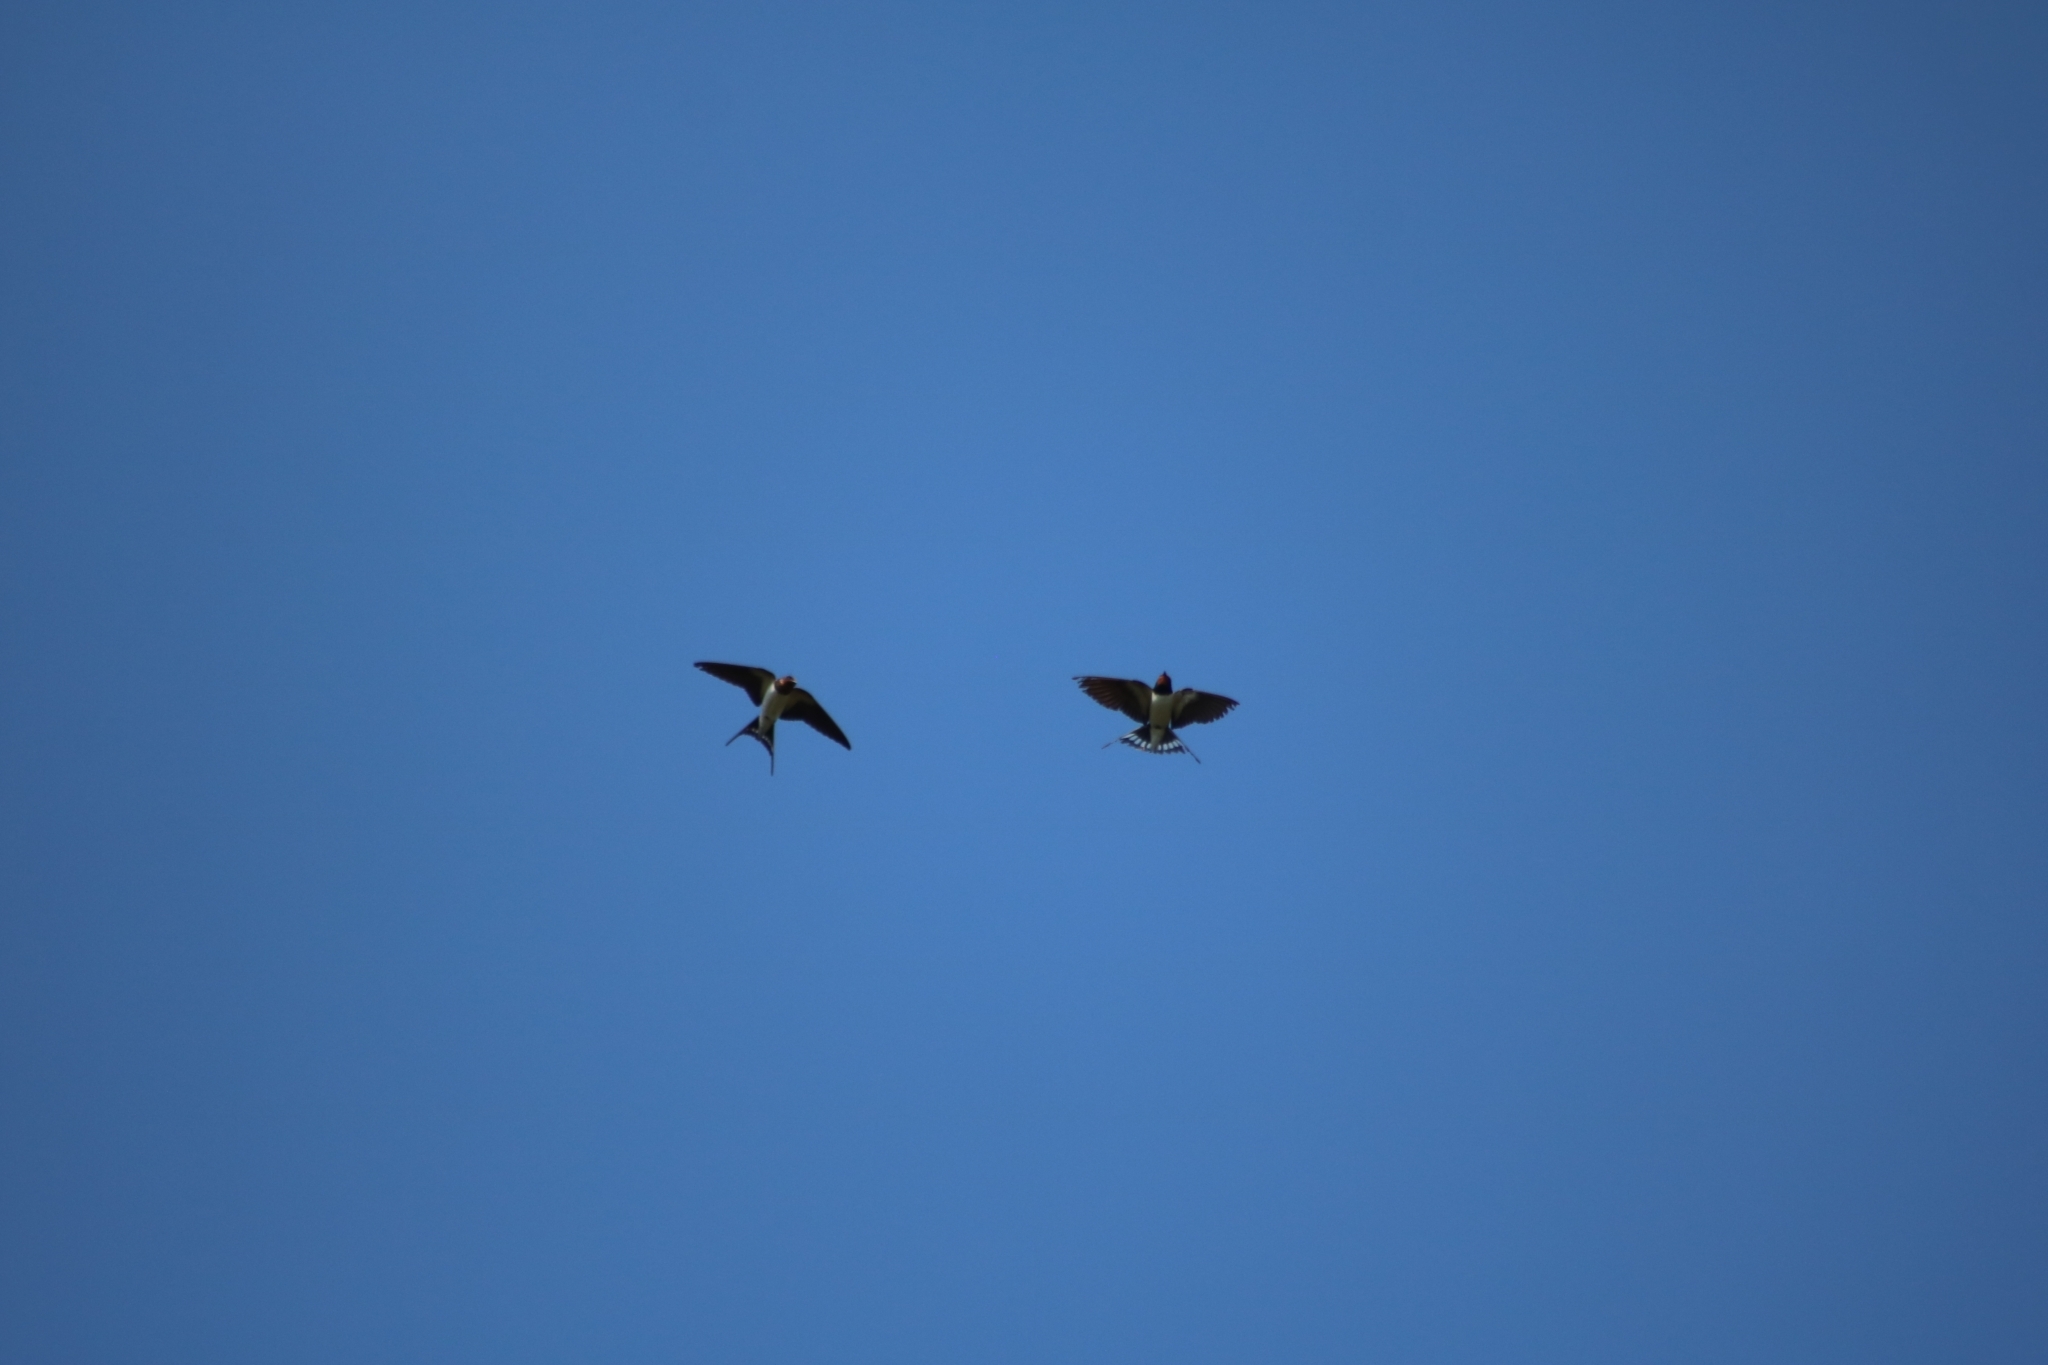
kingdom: Animalia
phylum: Chordata
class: Aves
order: Passeriformes
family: Hirundinidae
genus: Hirundo
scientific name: Hirundo rustica
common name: Barn swallow
